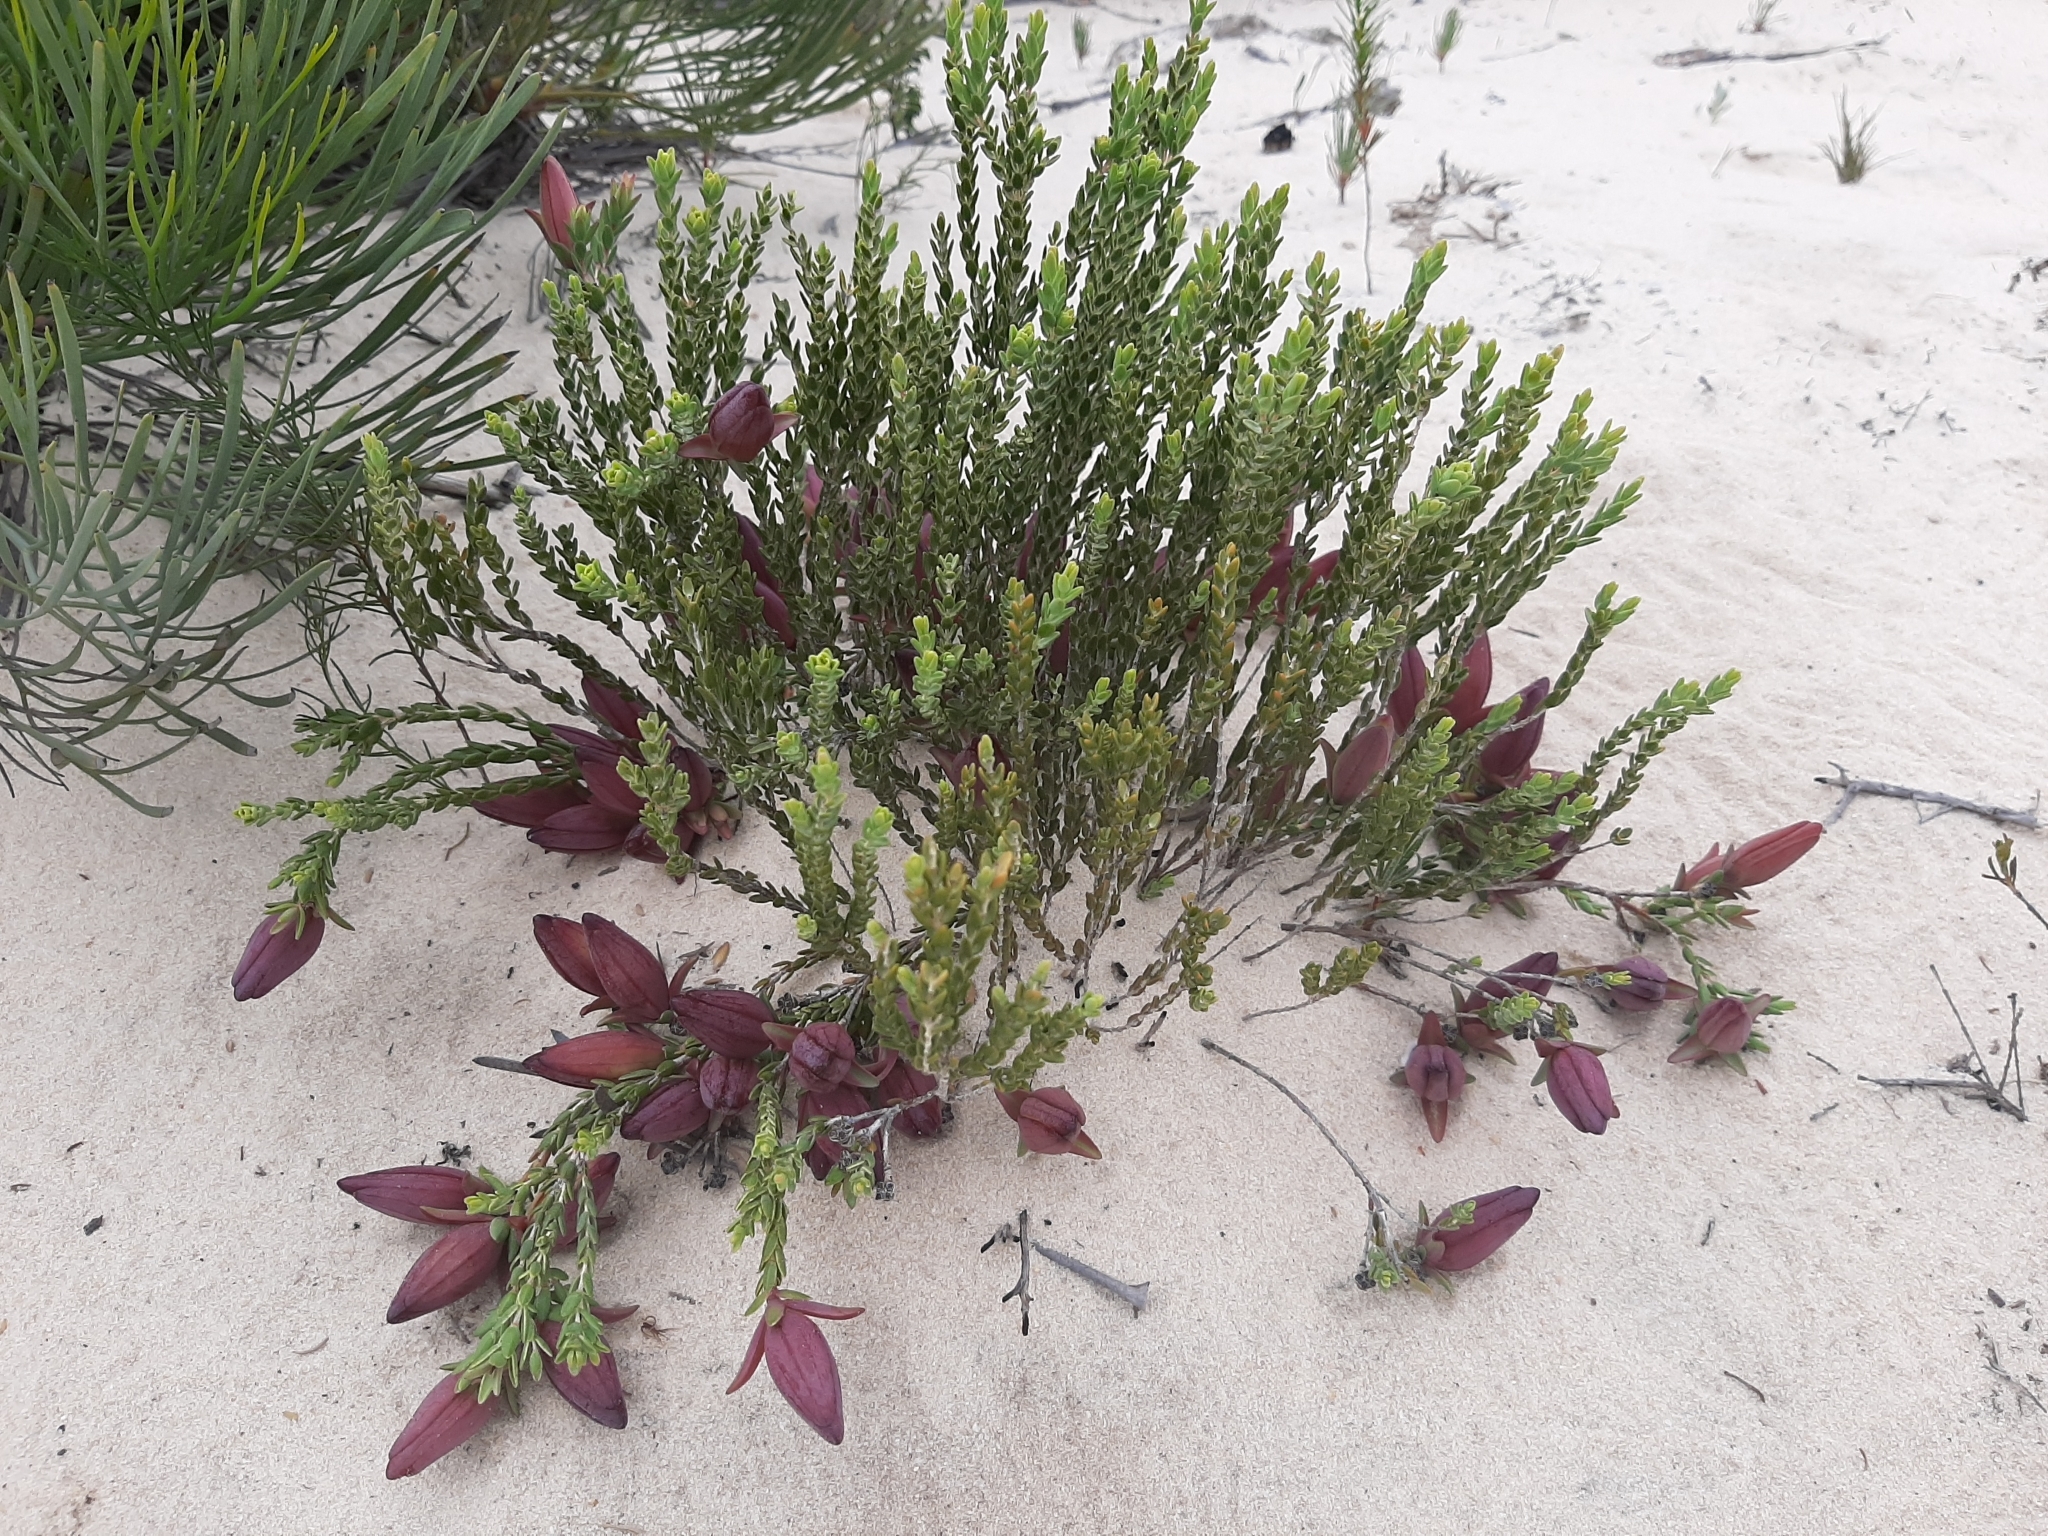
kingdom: Plantae
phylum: Tracheophyta
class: Magnoliopsida
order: Myrtales
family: Myrtaceae
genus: Darwinia
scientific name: Darwinia speciosa
